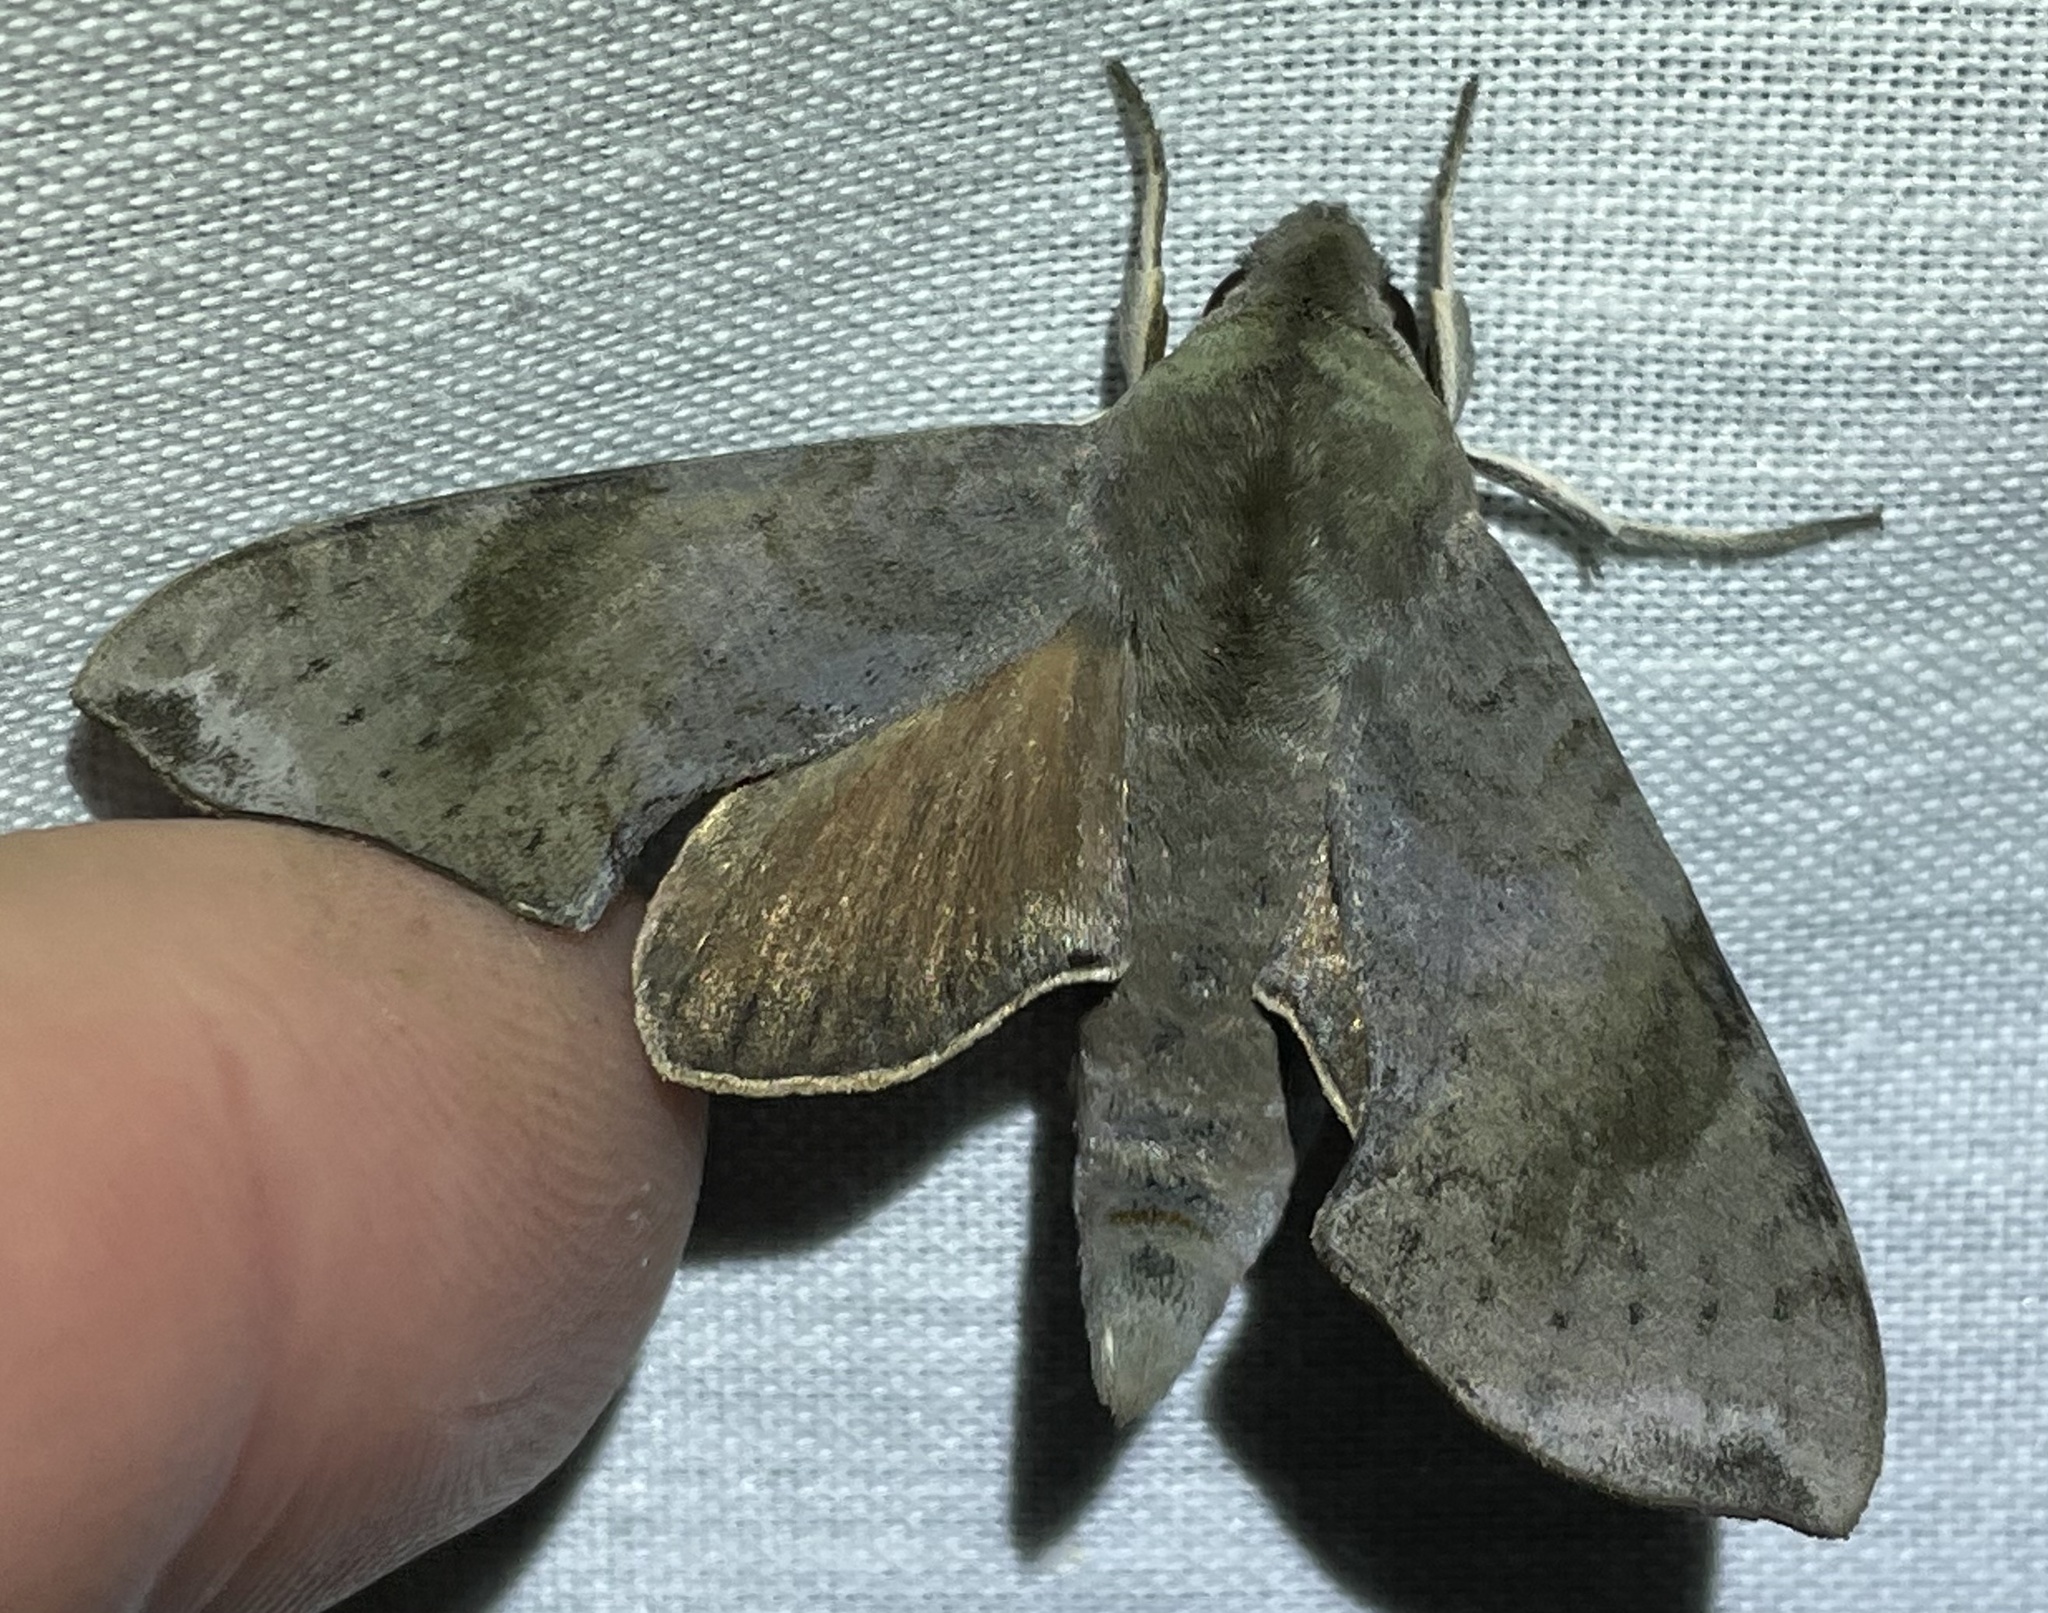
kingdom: Animalia
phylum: Arthropoda
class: Insecta
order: Lepidoptera
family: Sphingidae
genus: Temnora
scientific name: Temnora murina
